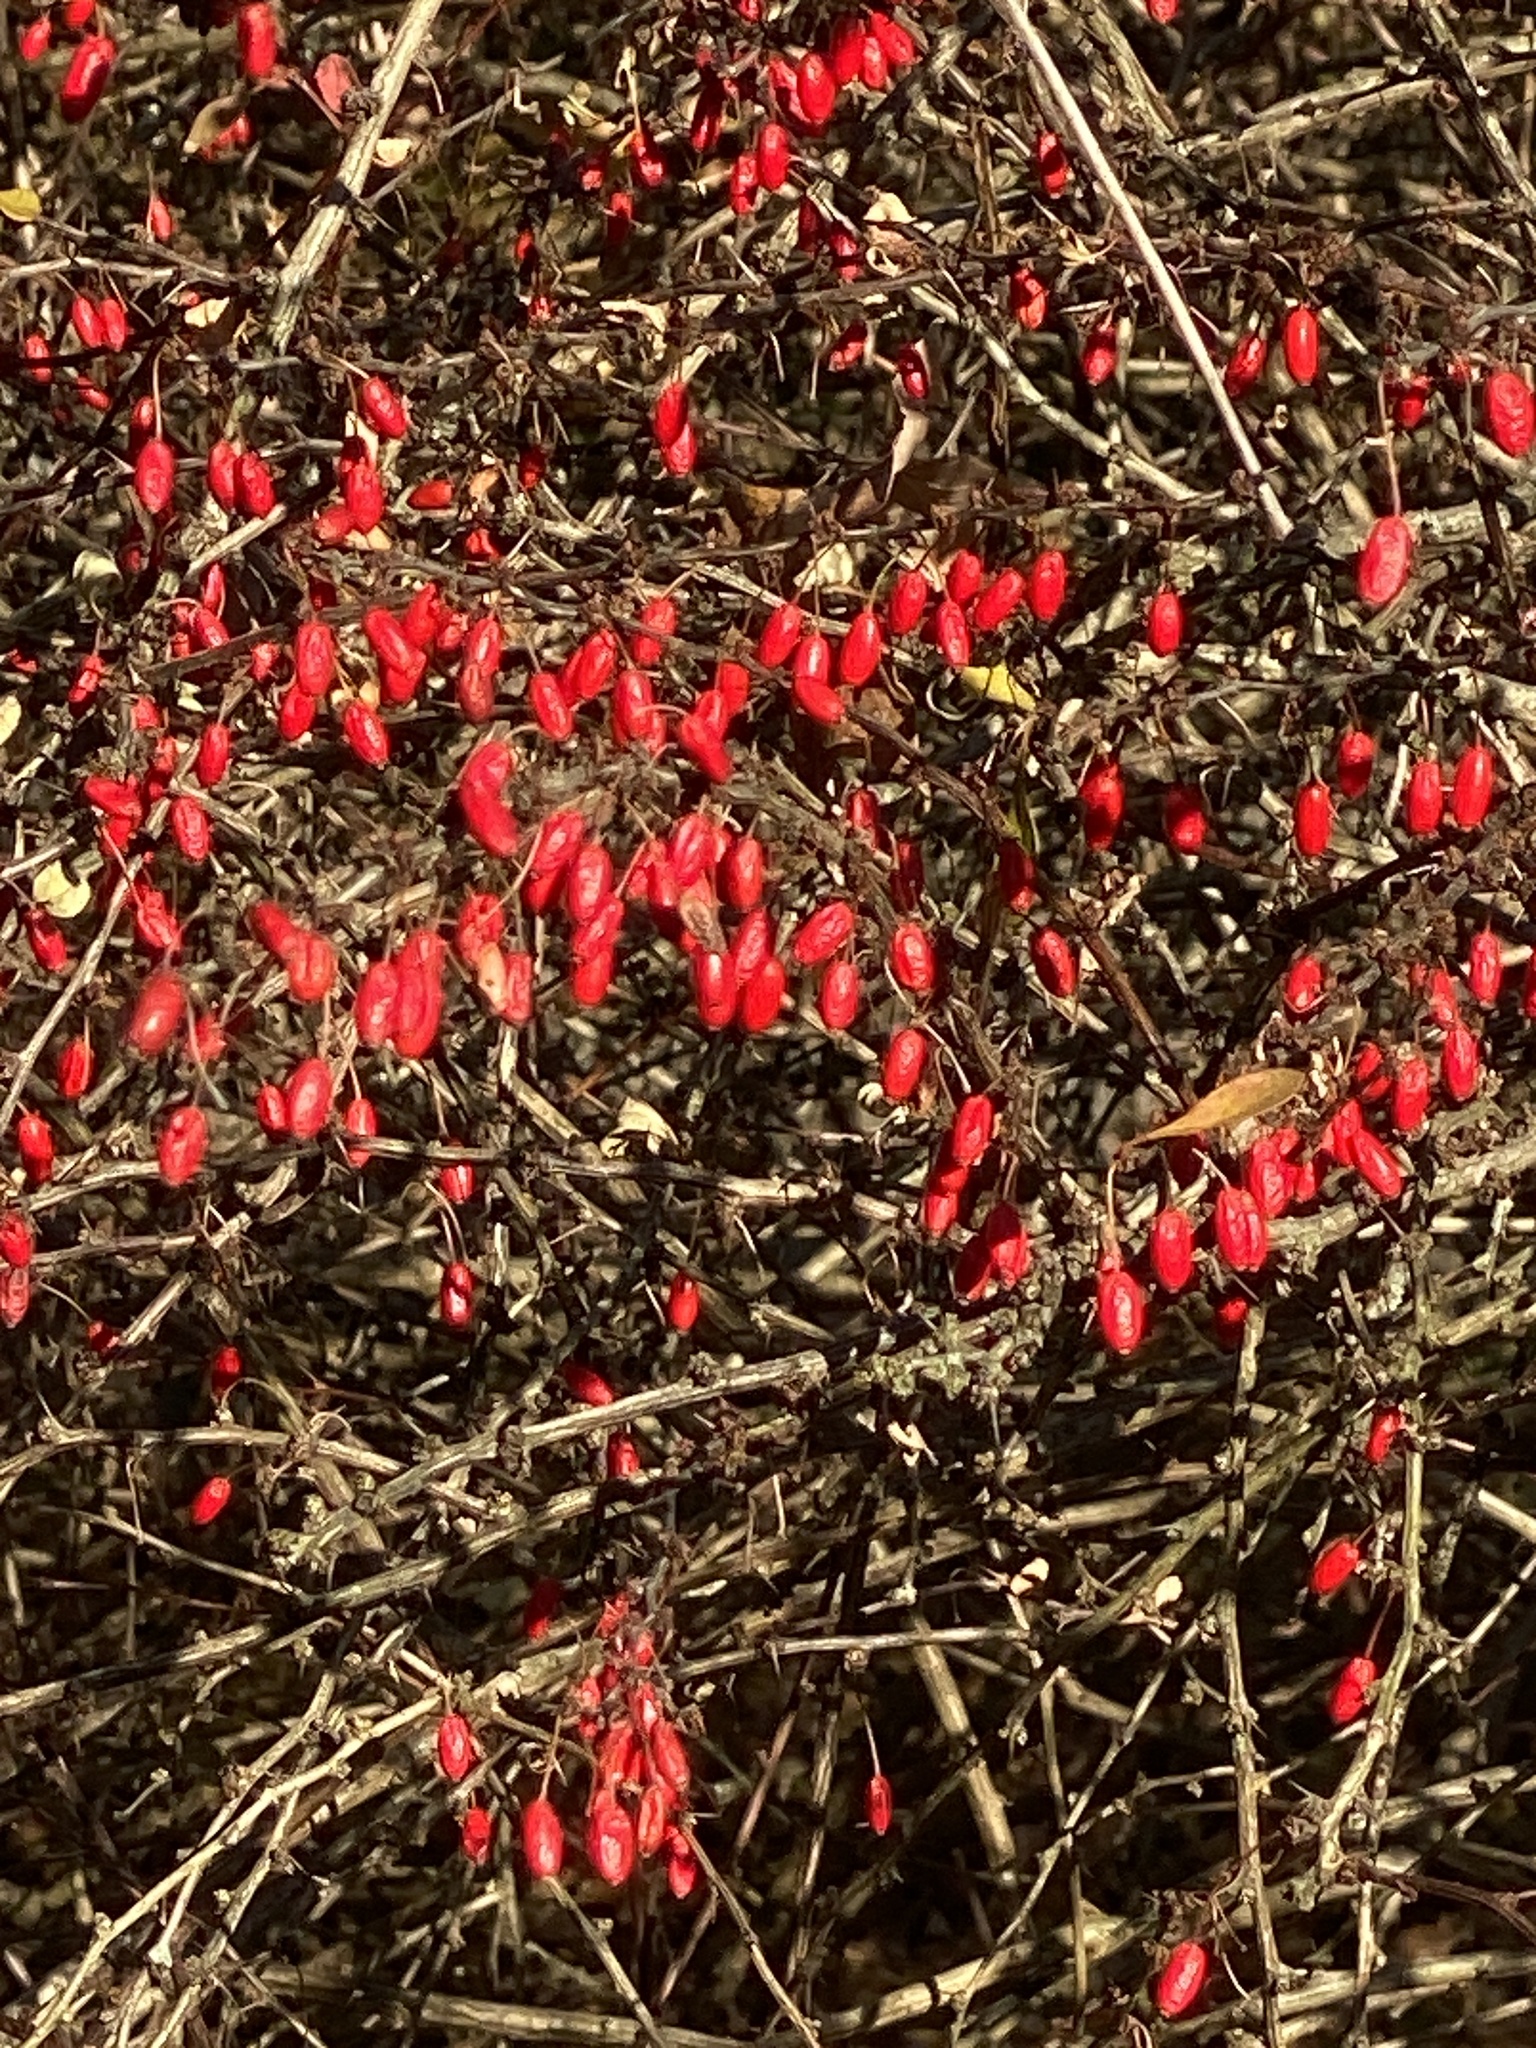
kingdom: Plantae
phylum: Tracheophyta
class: Magnoliopsida
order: Ranunculales
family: Berberidaceae
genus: Berberis
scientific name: Berberis thunbergii
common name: Japanese barberry
